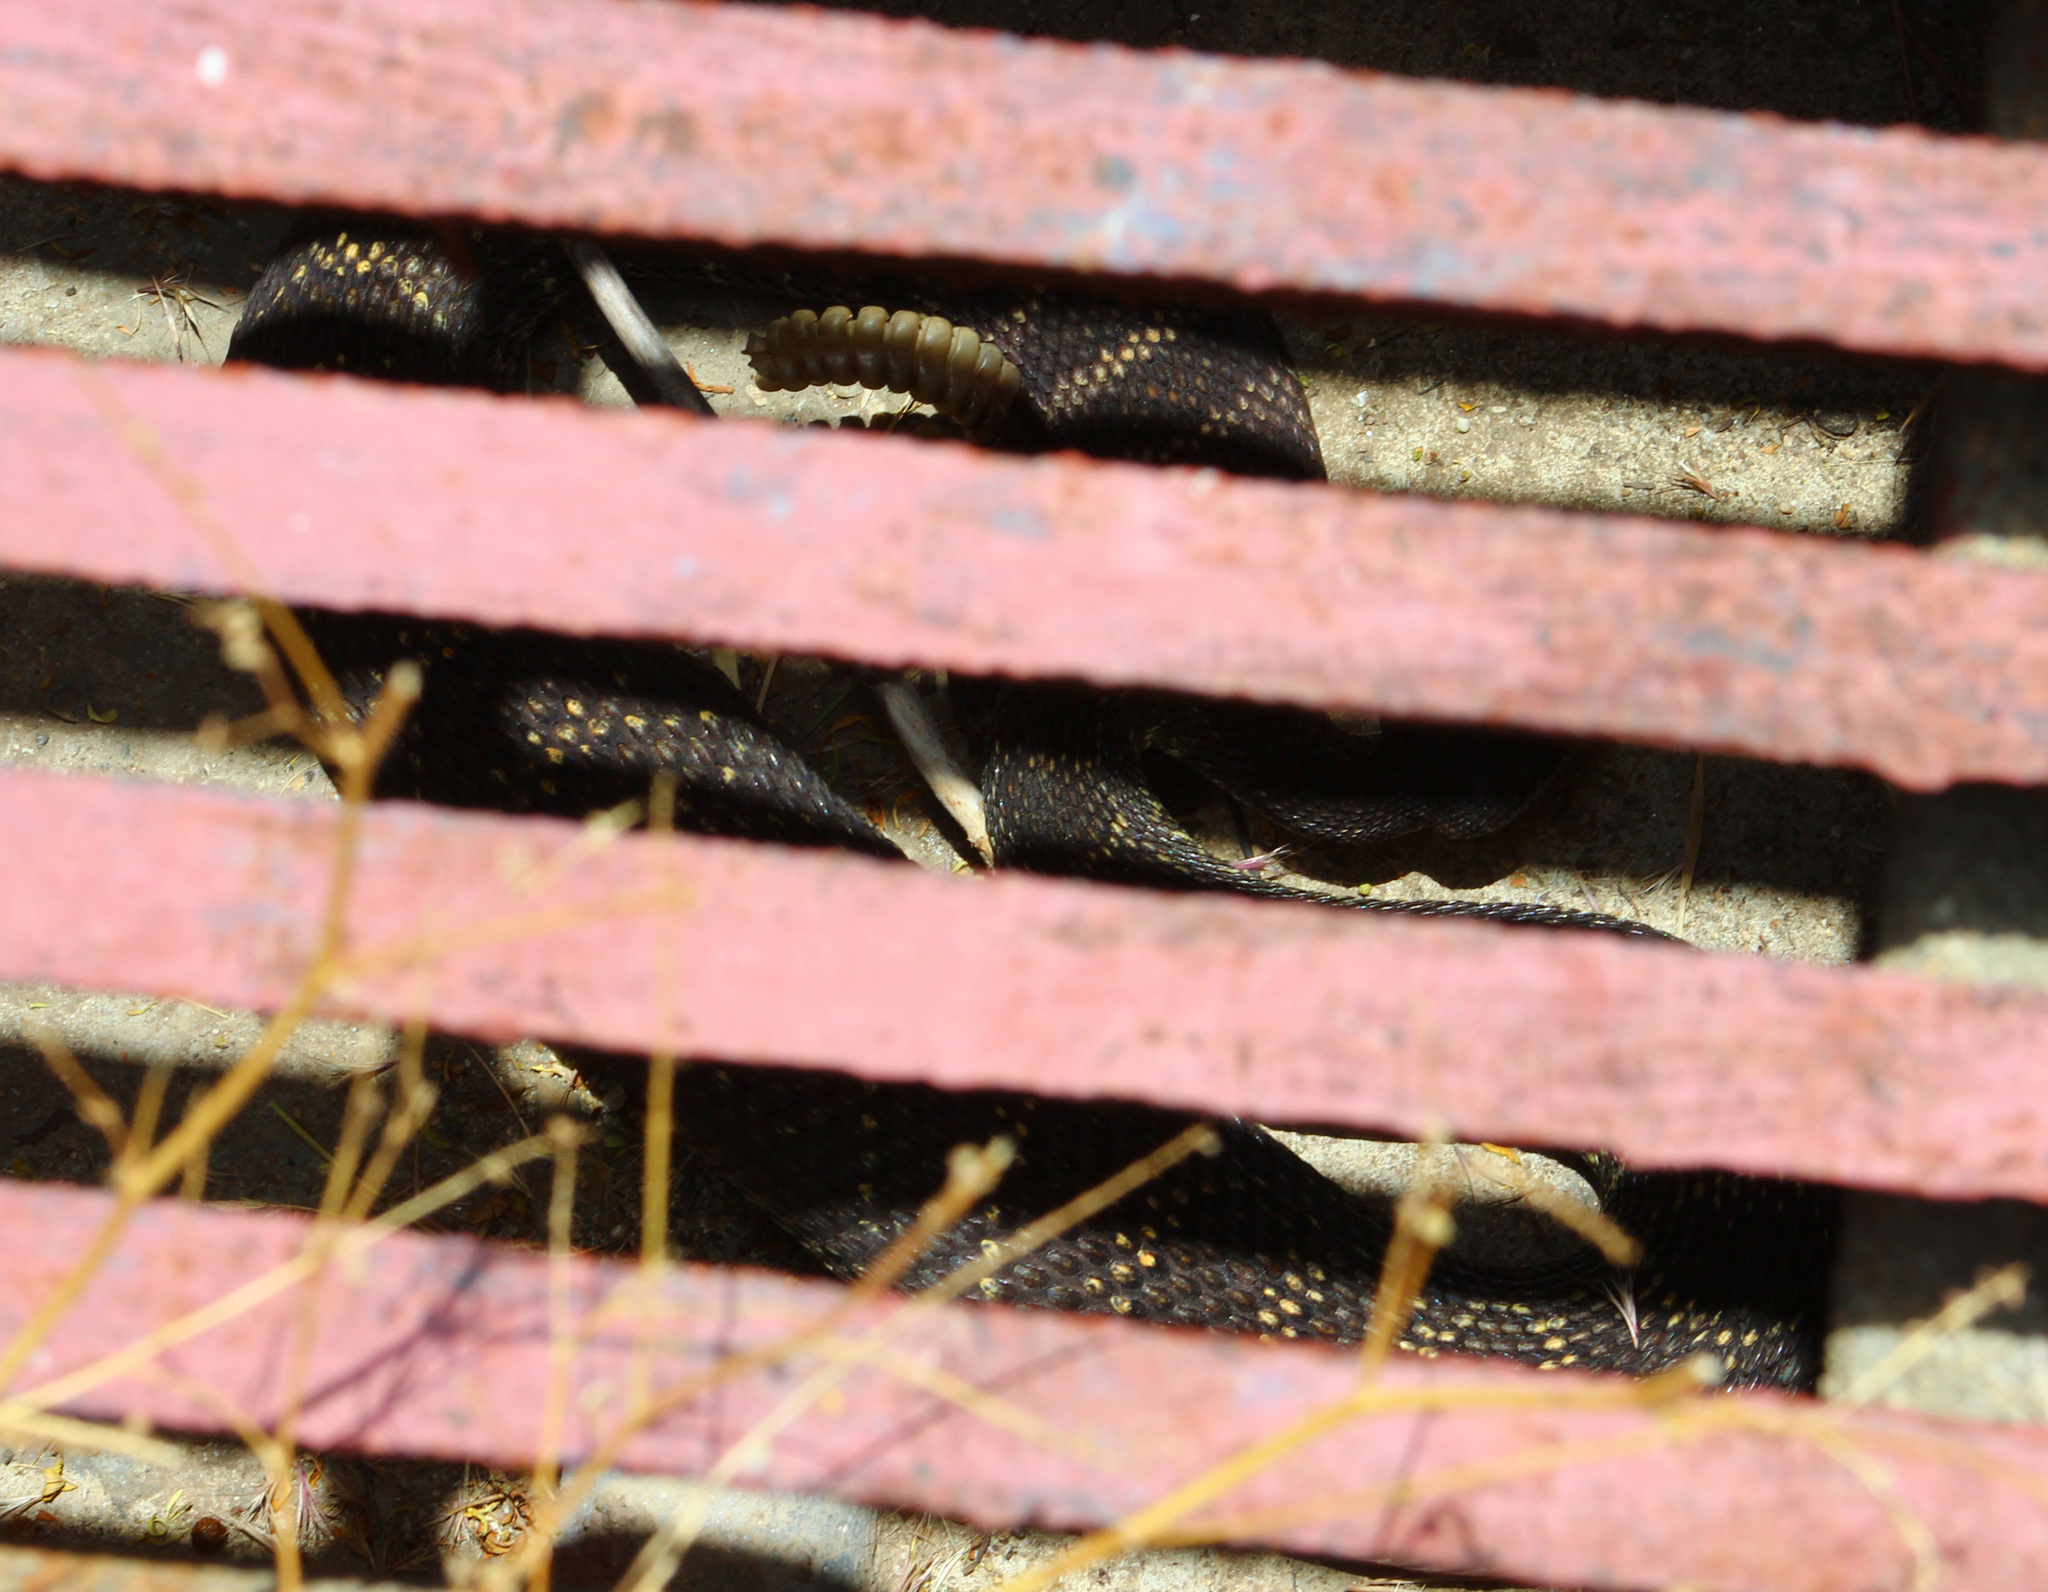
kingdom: Animalia
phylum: Chordata
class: Squamata
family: Viperidae
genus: Crotalus
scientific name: Crotalus oreganus
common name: Abyssus
